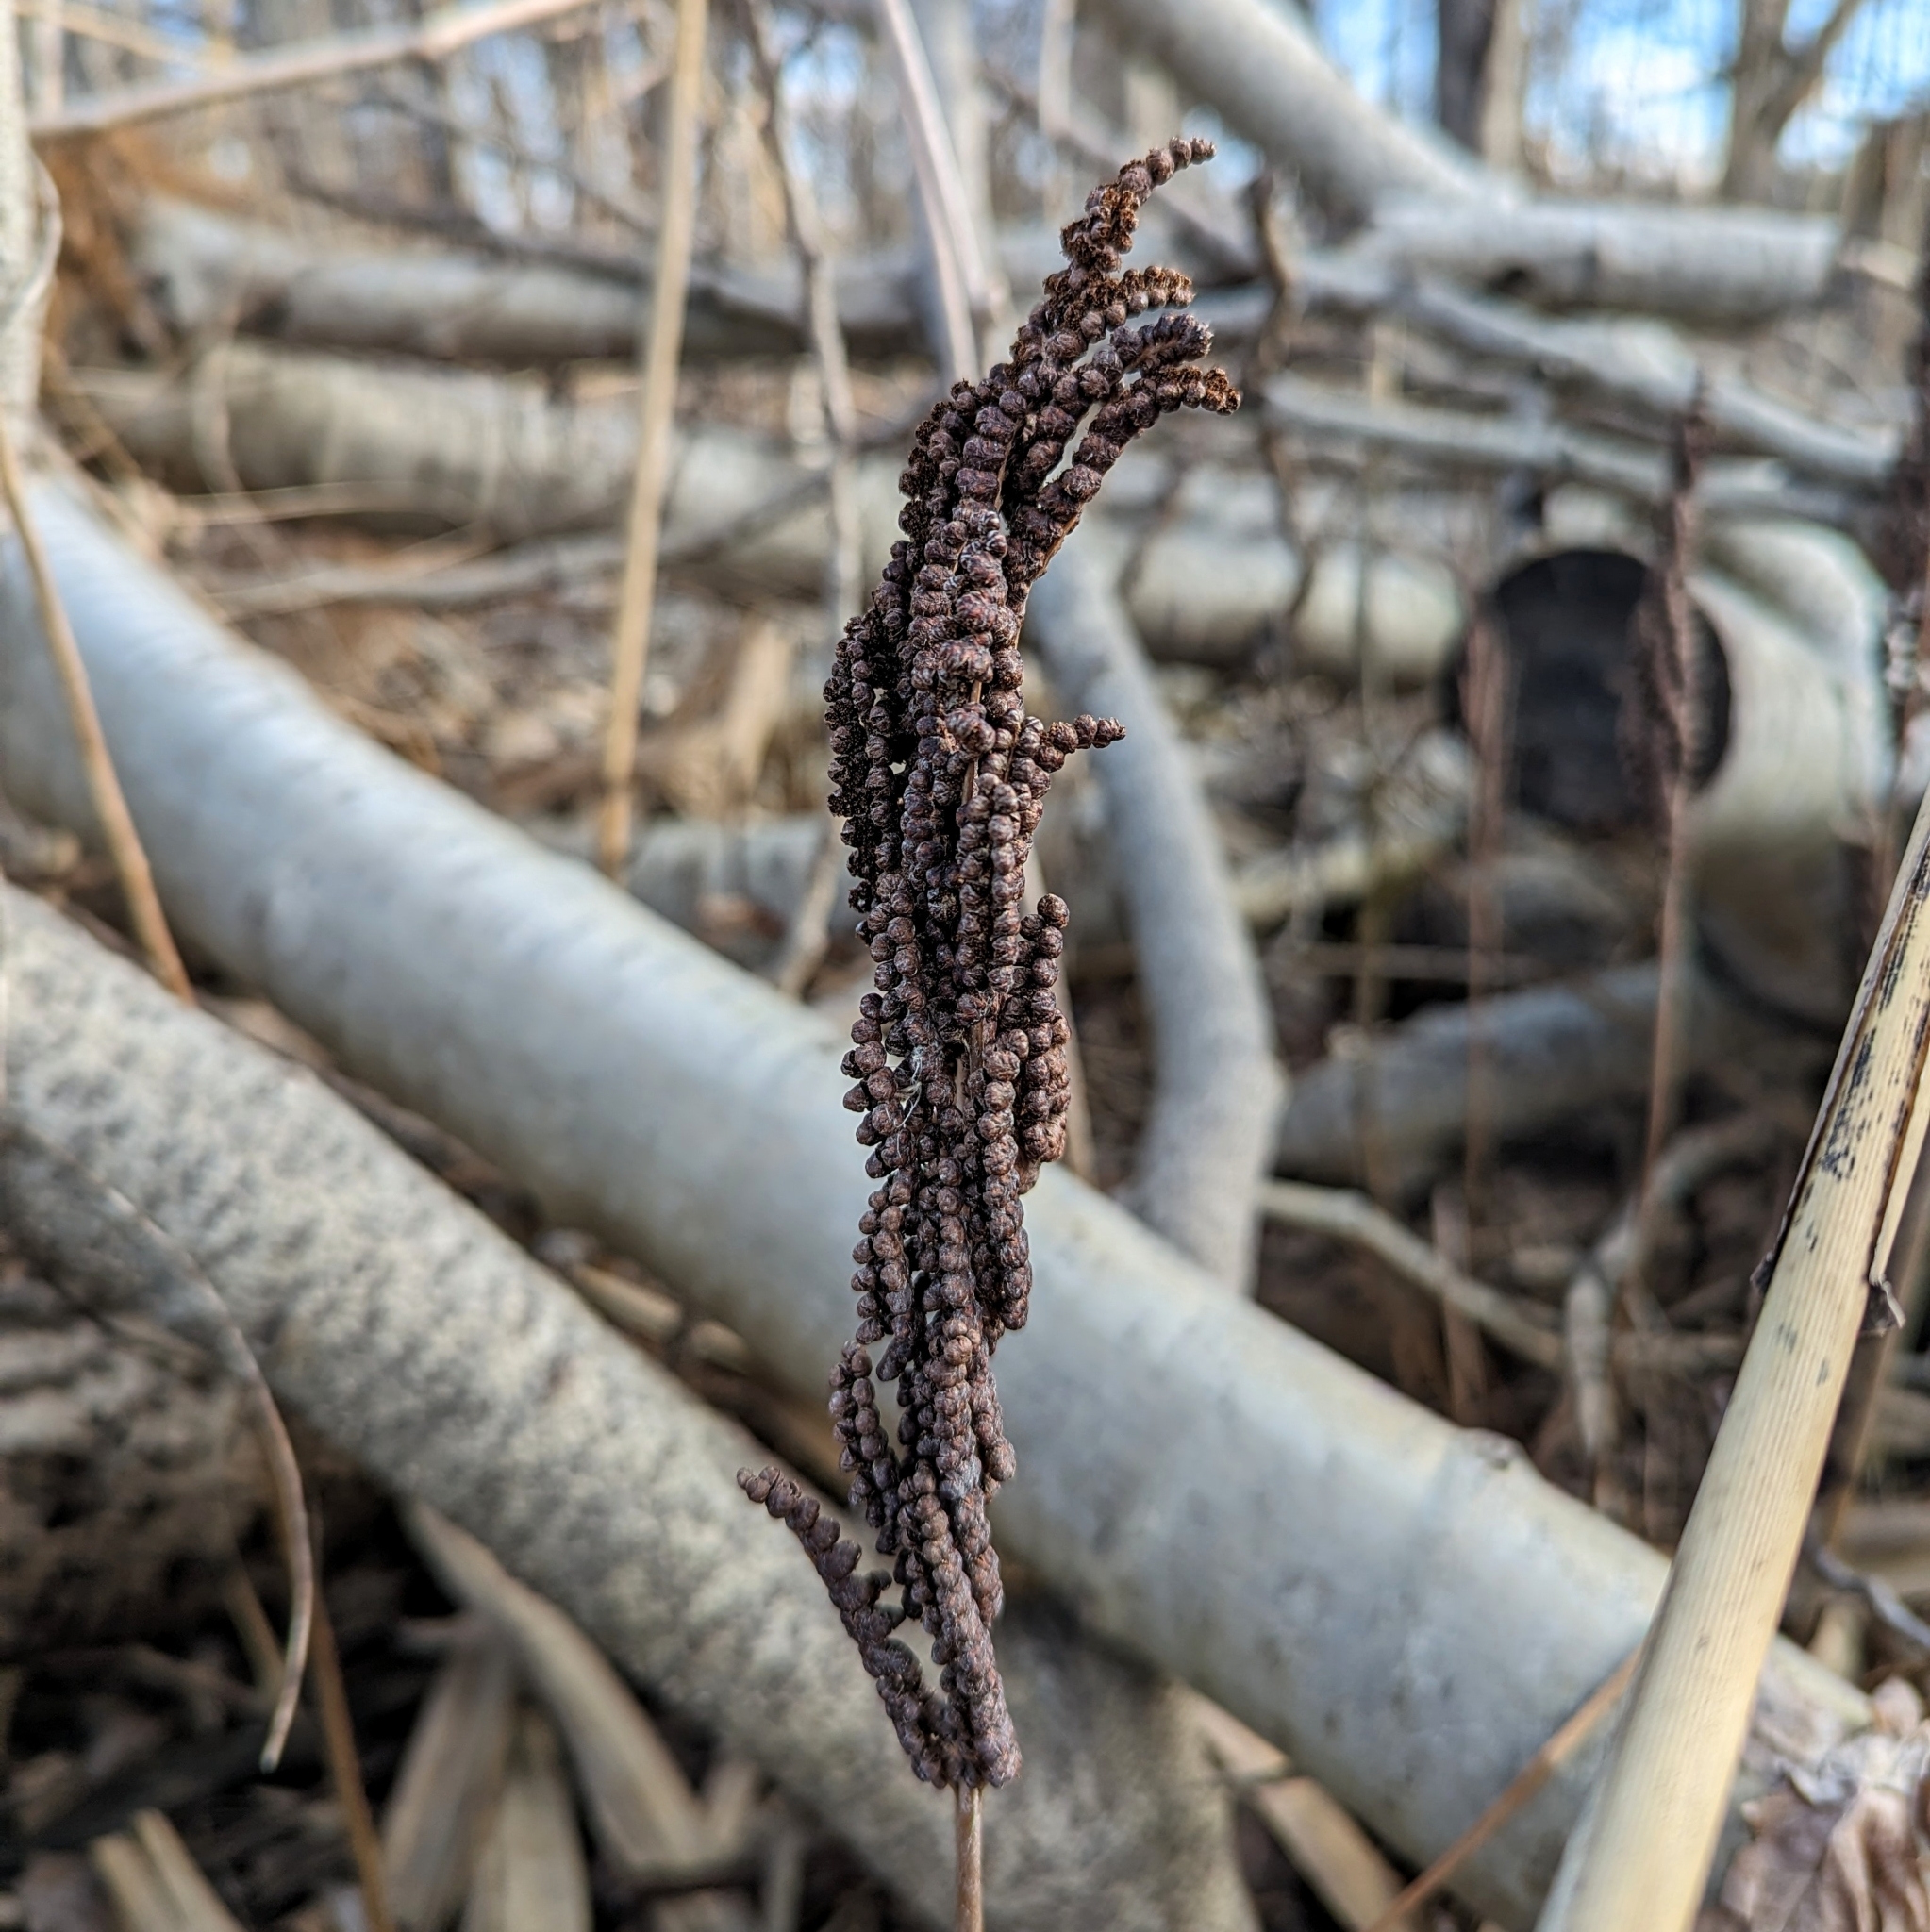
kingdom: Plantae
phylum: Tracheophyta
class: Polypodiopsida
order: Polypodiales
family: Onocleaceae
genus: Onoclea
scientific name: Onoclea sensibilis
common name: Sensitive fern
